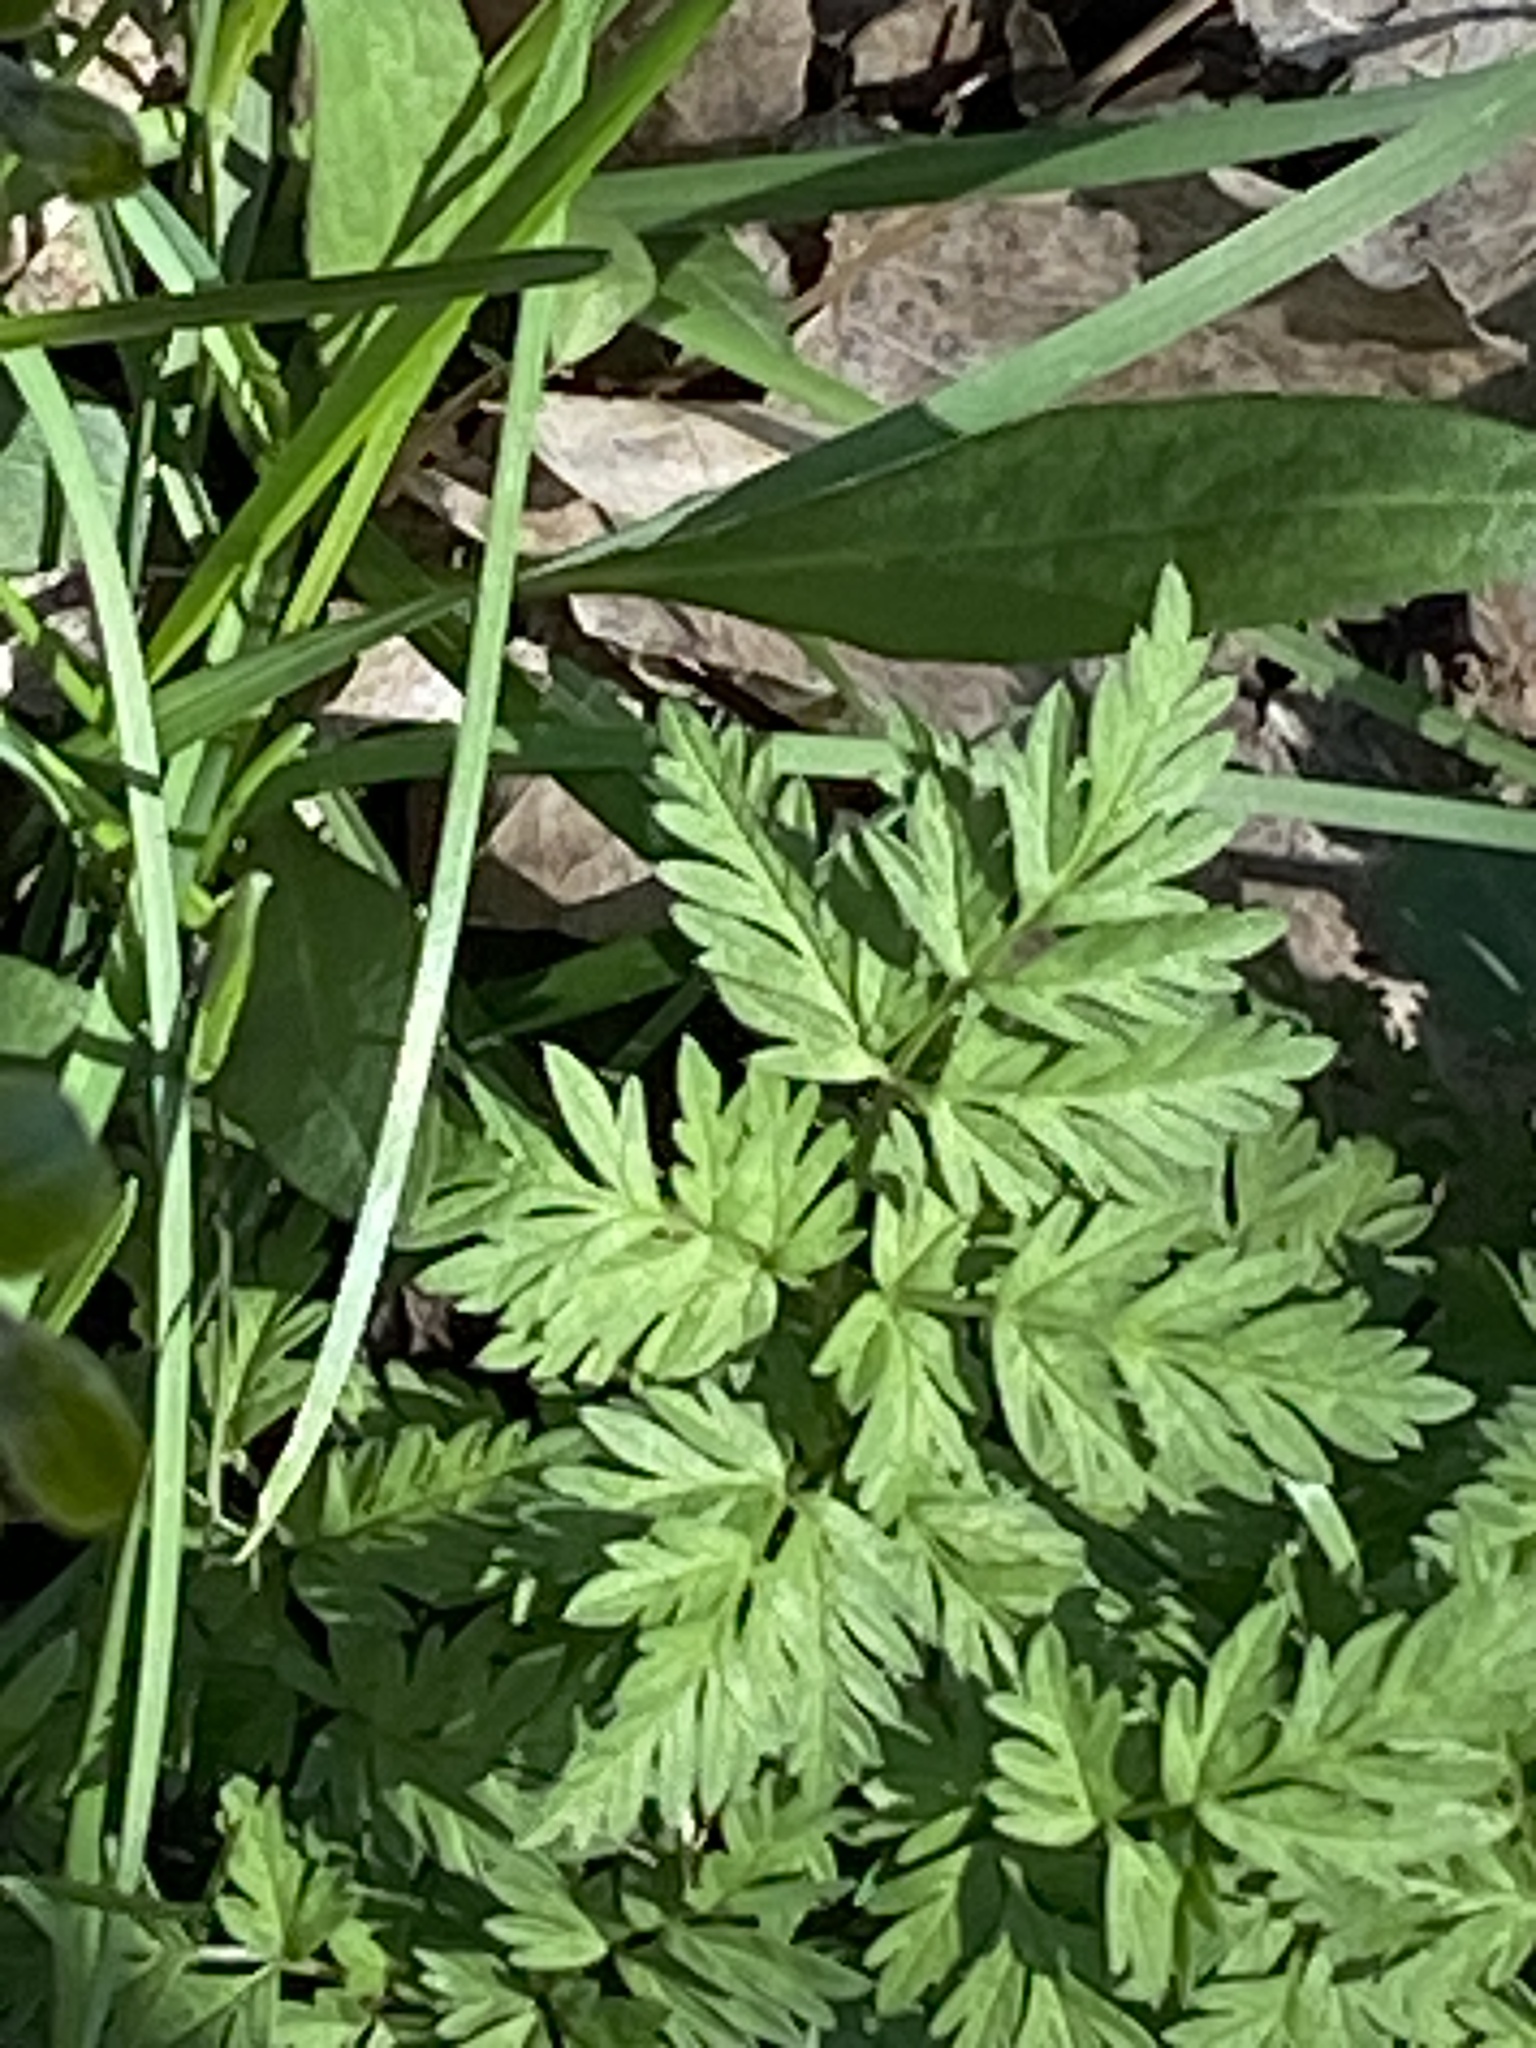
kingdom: Plantae
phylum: Tracheophyta
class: Magnoliopsida
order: Apiales
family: Apiaceae
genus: Anthriscus
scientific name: Anthriscus sylvestris
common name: Cow parsley
